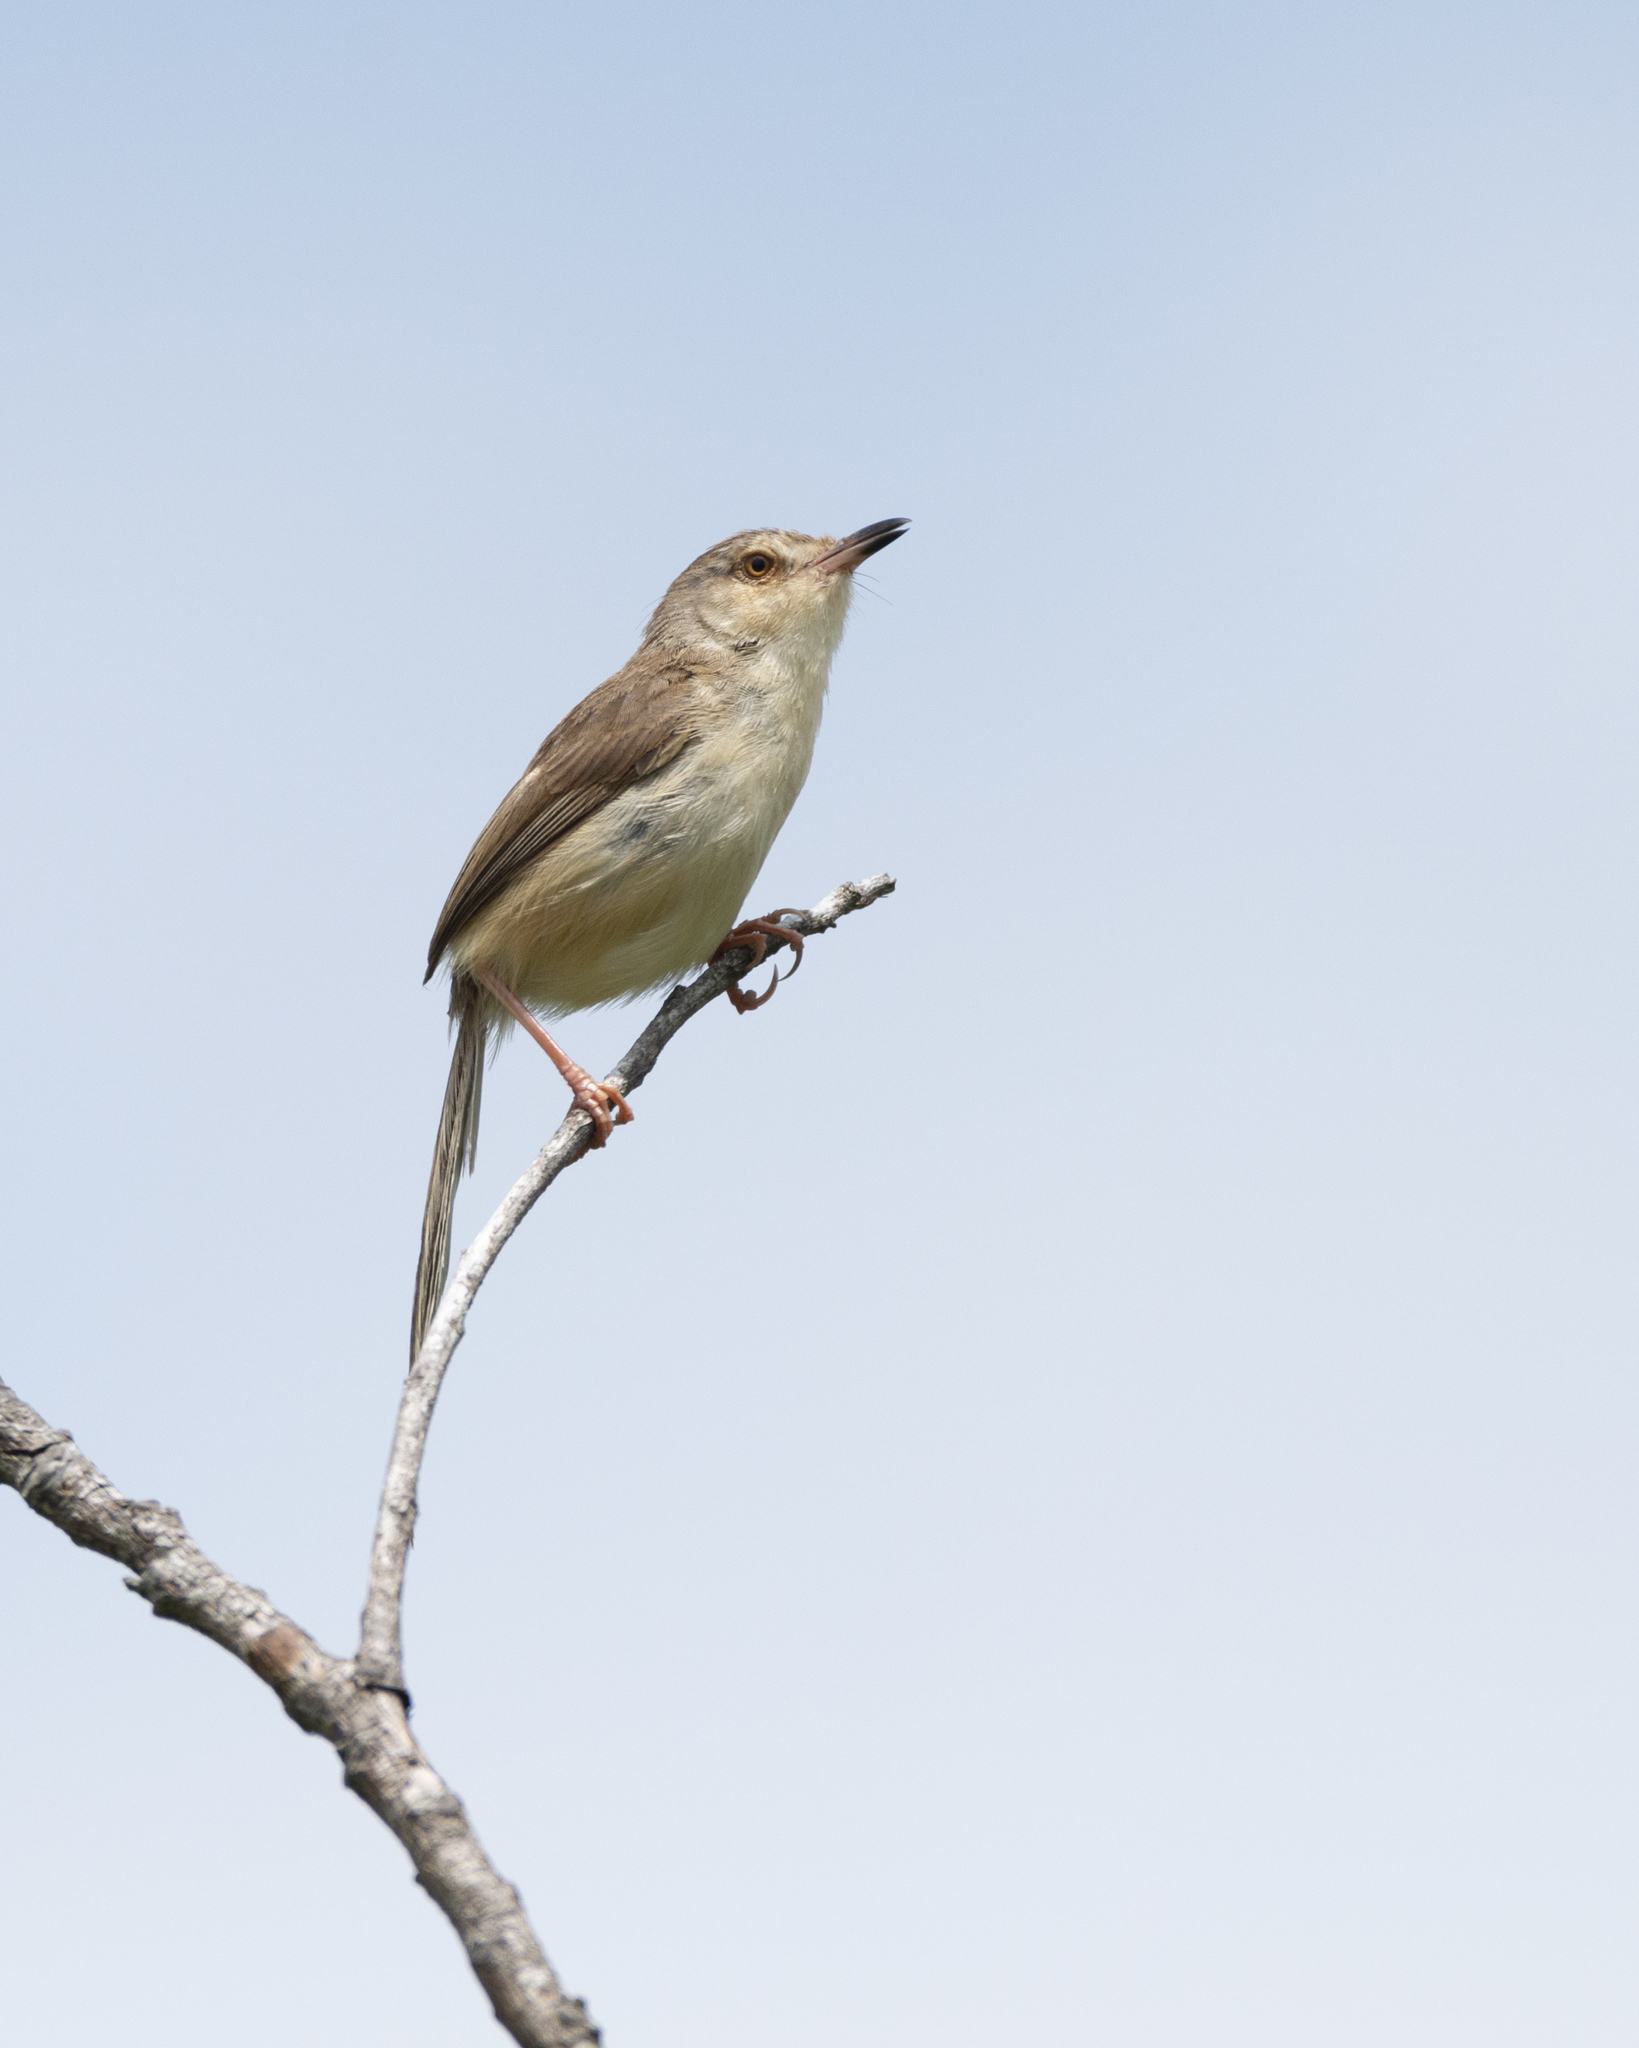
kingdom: Animalia
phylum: Chordata
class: Aves
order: Passeriformes
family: Cisticolidae
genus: Prinia
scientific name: Prinia inornata
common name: Plain prinia
